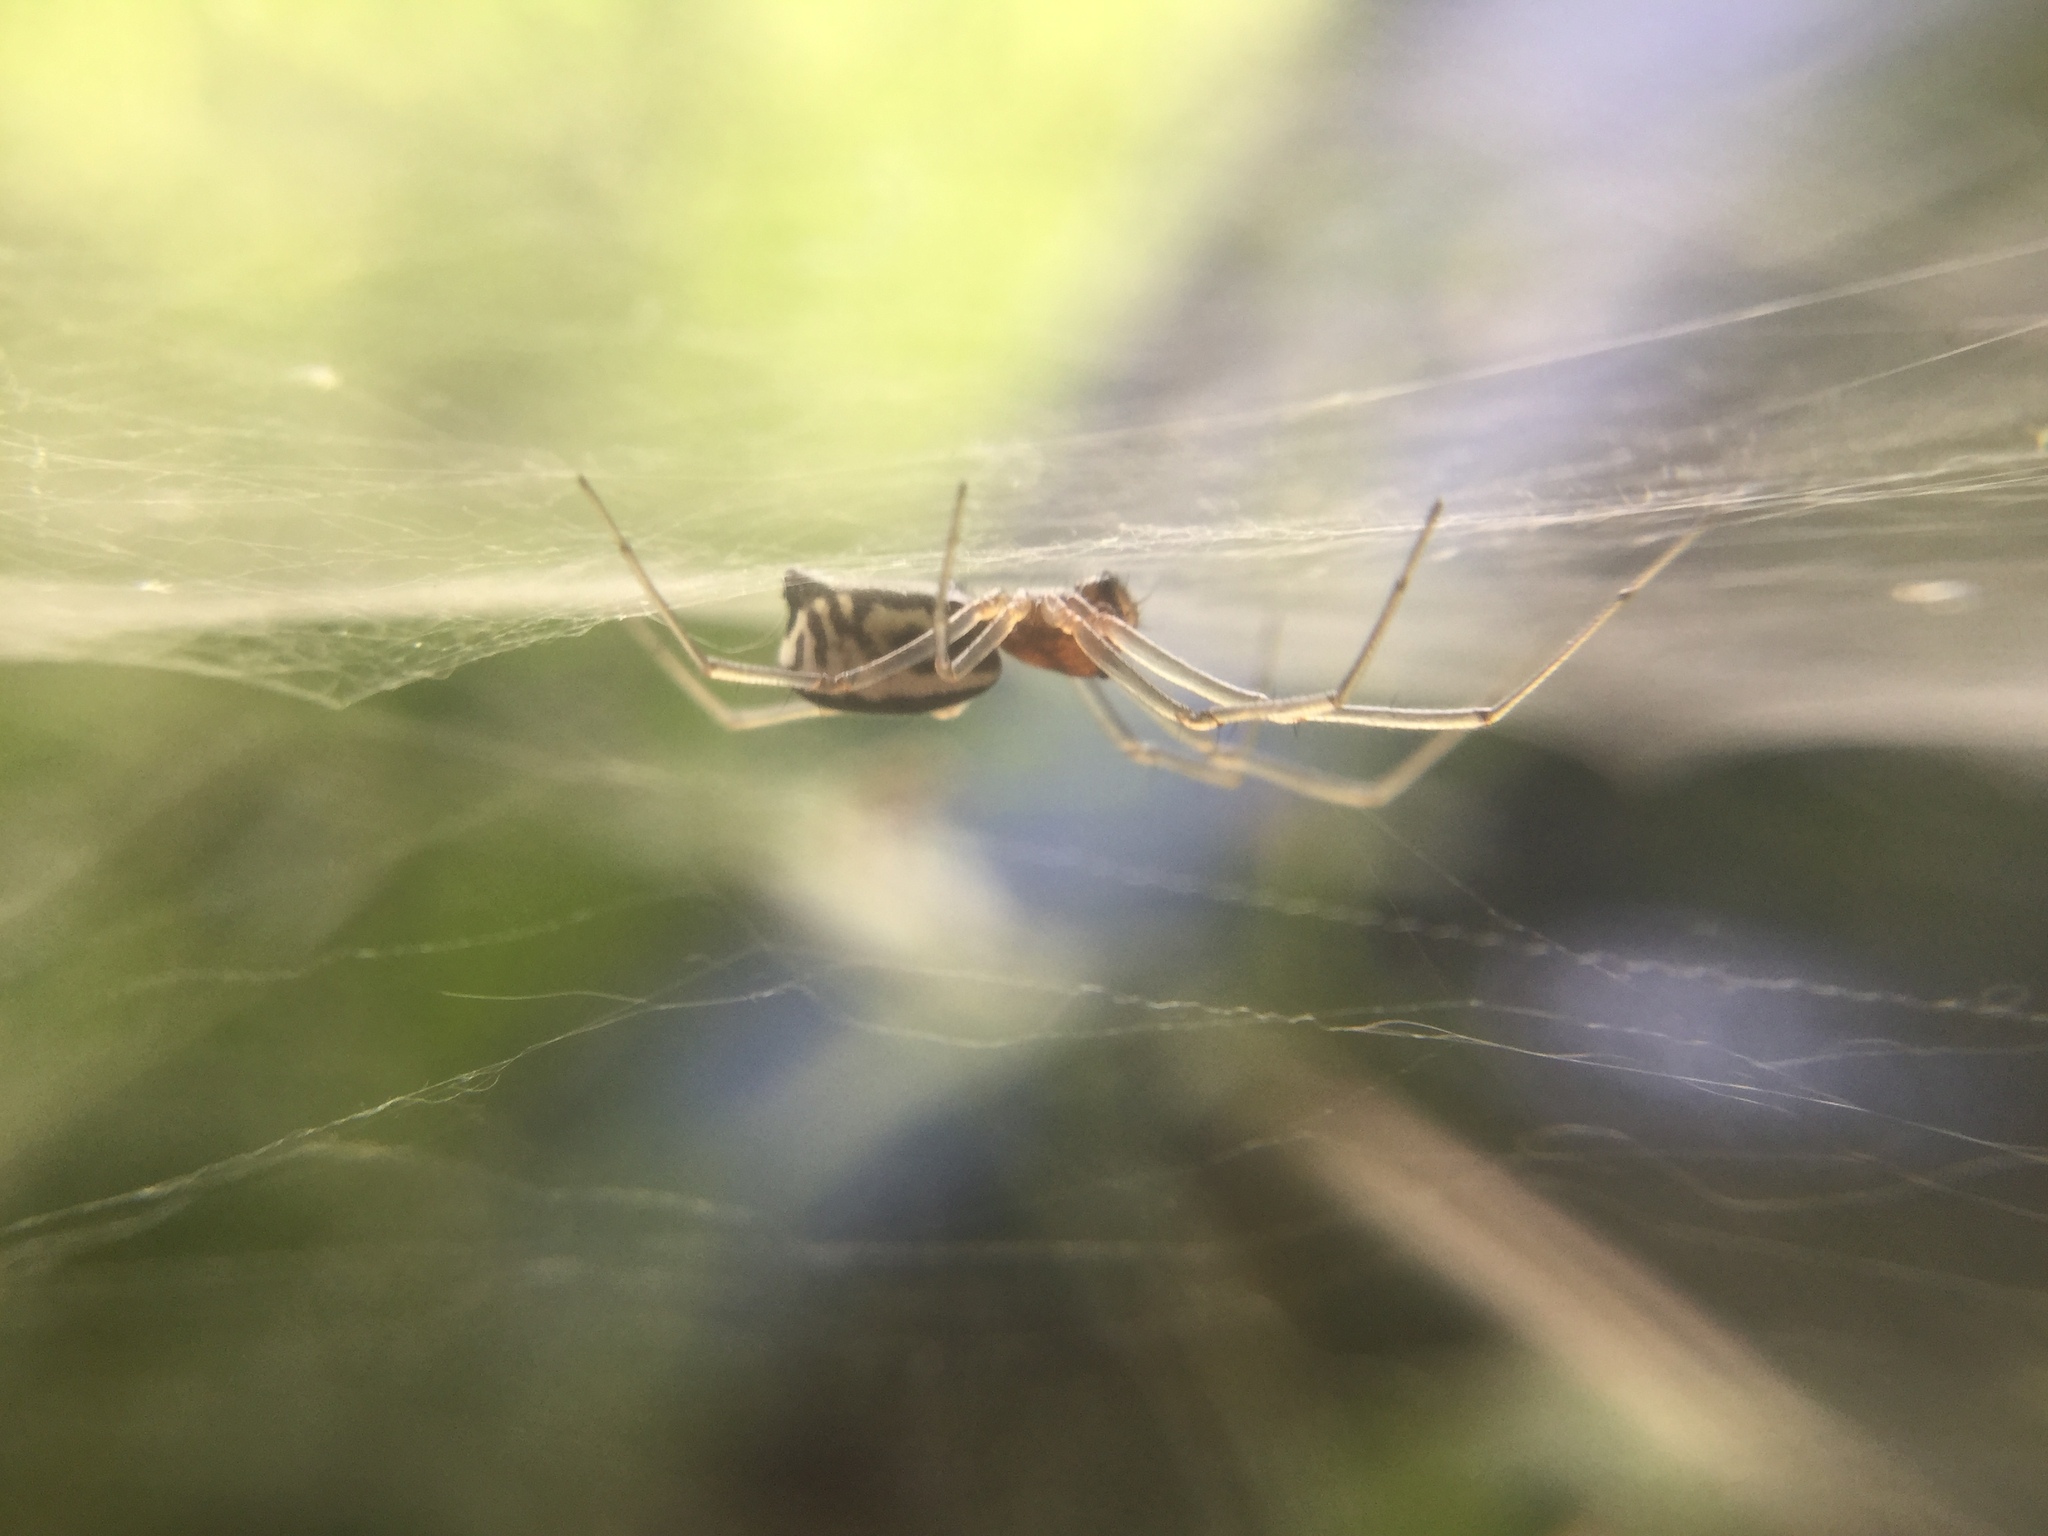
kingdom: Animalia
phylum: Arthropoda
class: Arachnida
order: Araneae
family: Linyphiidae
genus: Frontinella
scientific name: Frontinella pyramitela
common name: Bowl-and-doily spider
